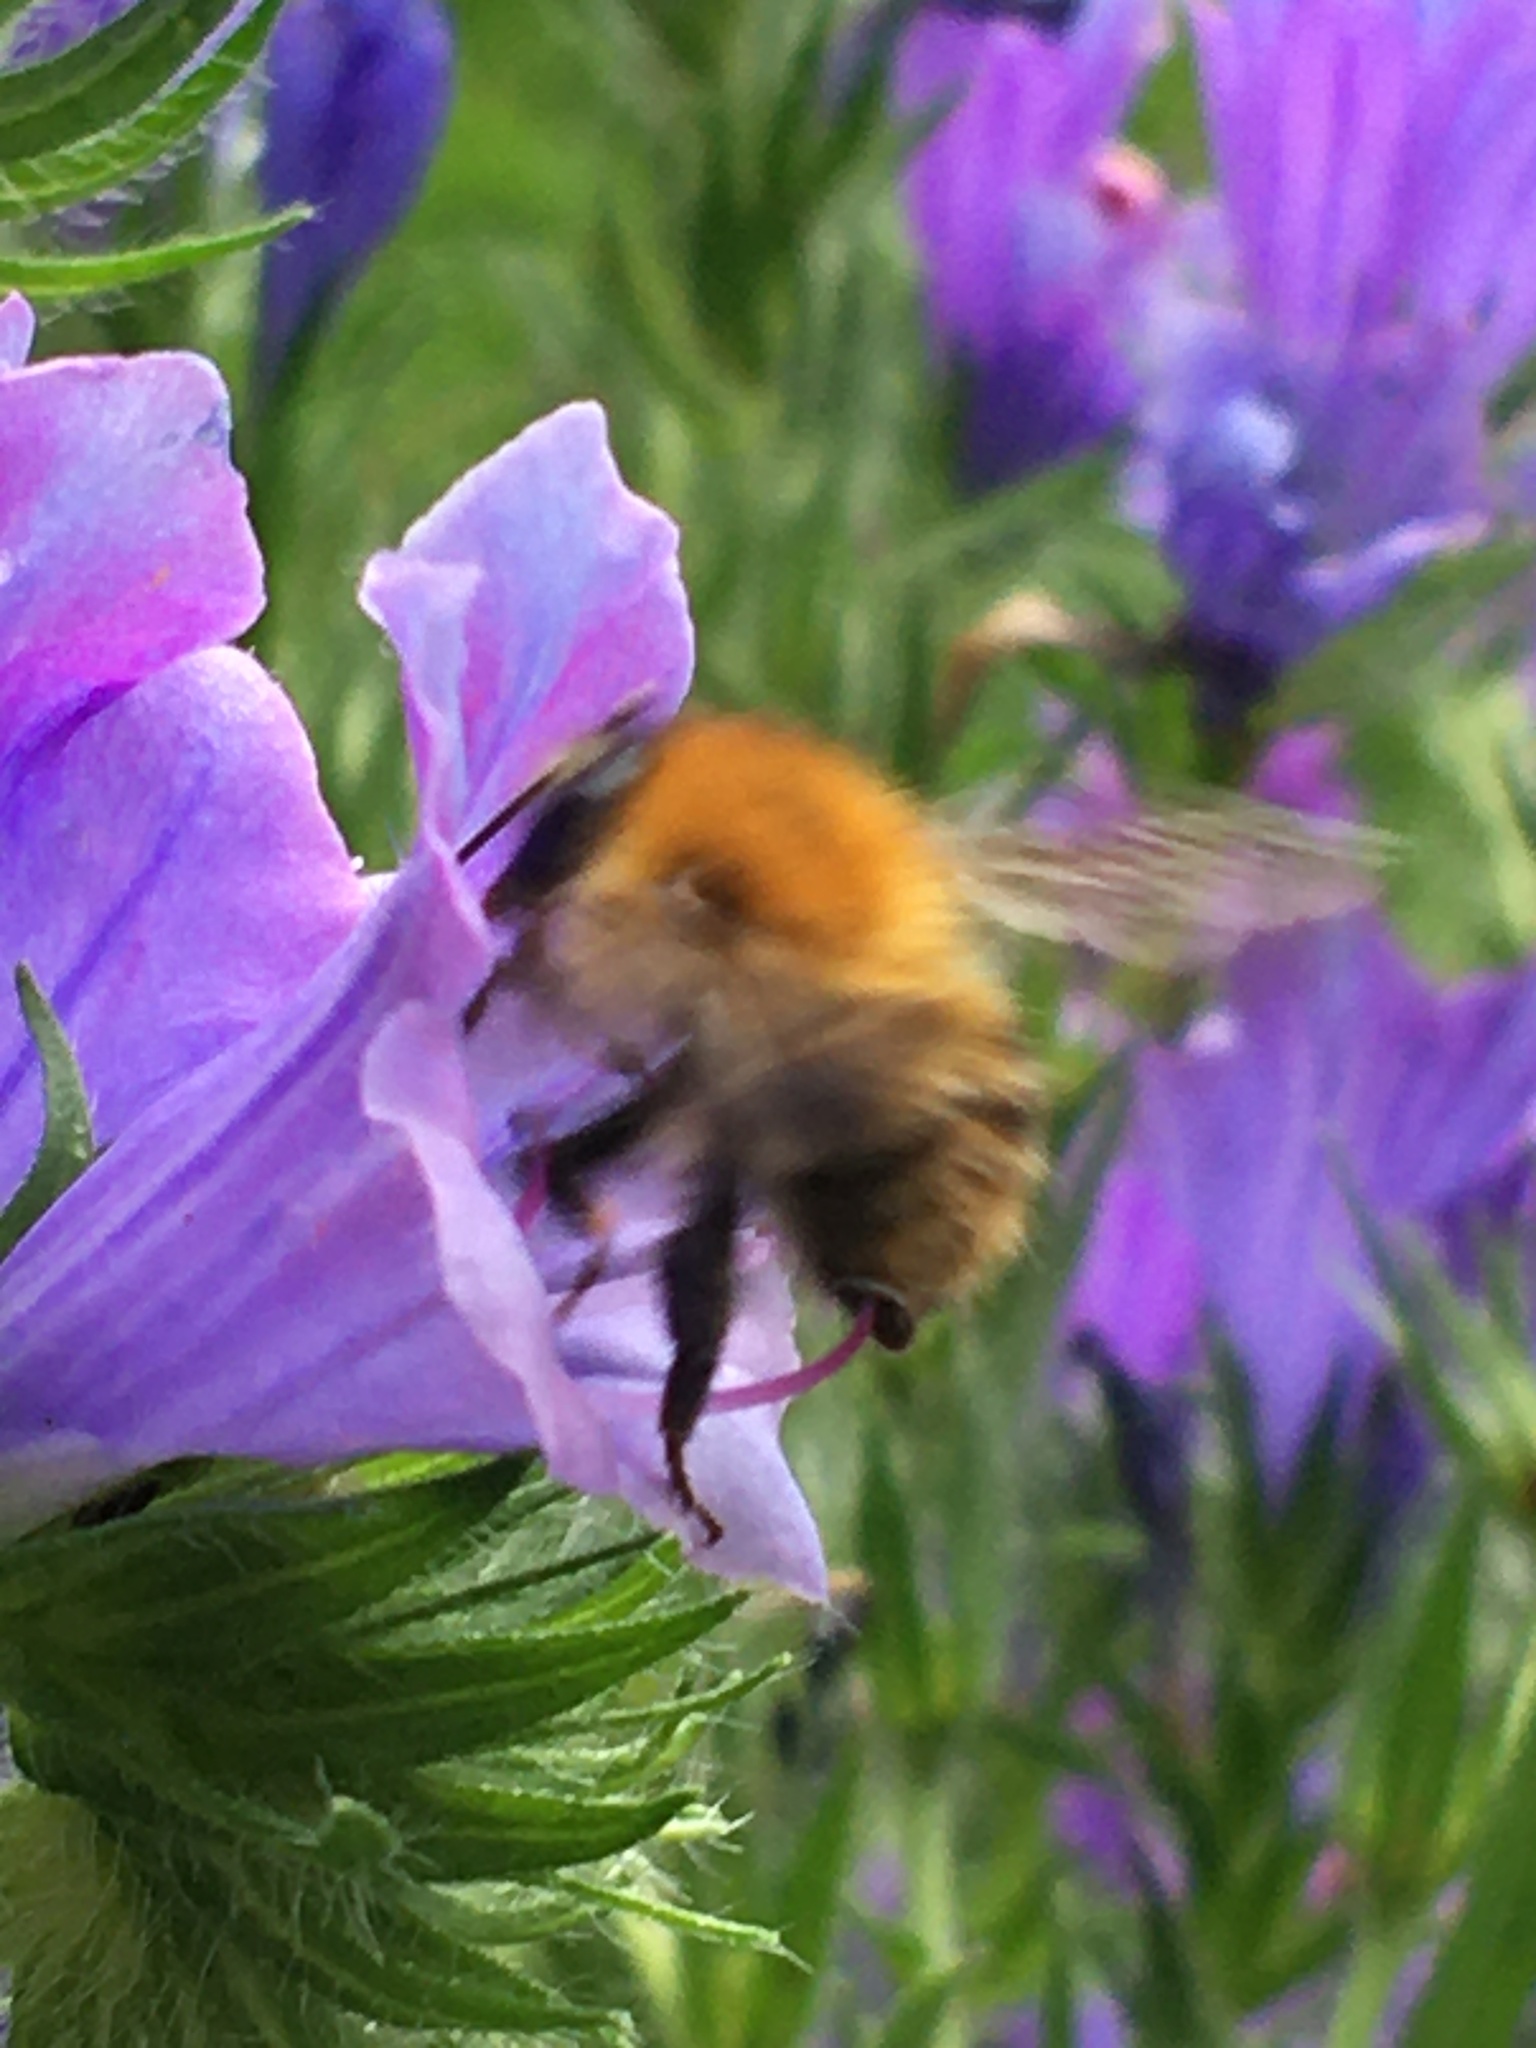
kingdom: Animalia
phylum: Arthropoda
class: Insecta
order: Hymenoptera
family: Apidae
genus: Bombus
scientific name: Bombus pascuorum
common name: Common carder bee
